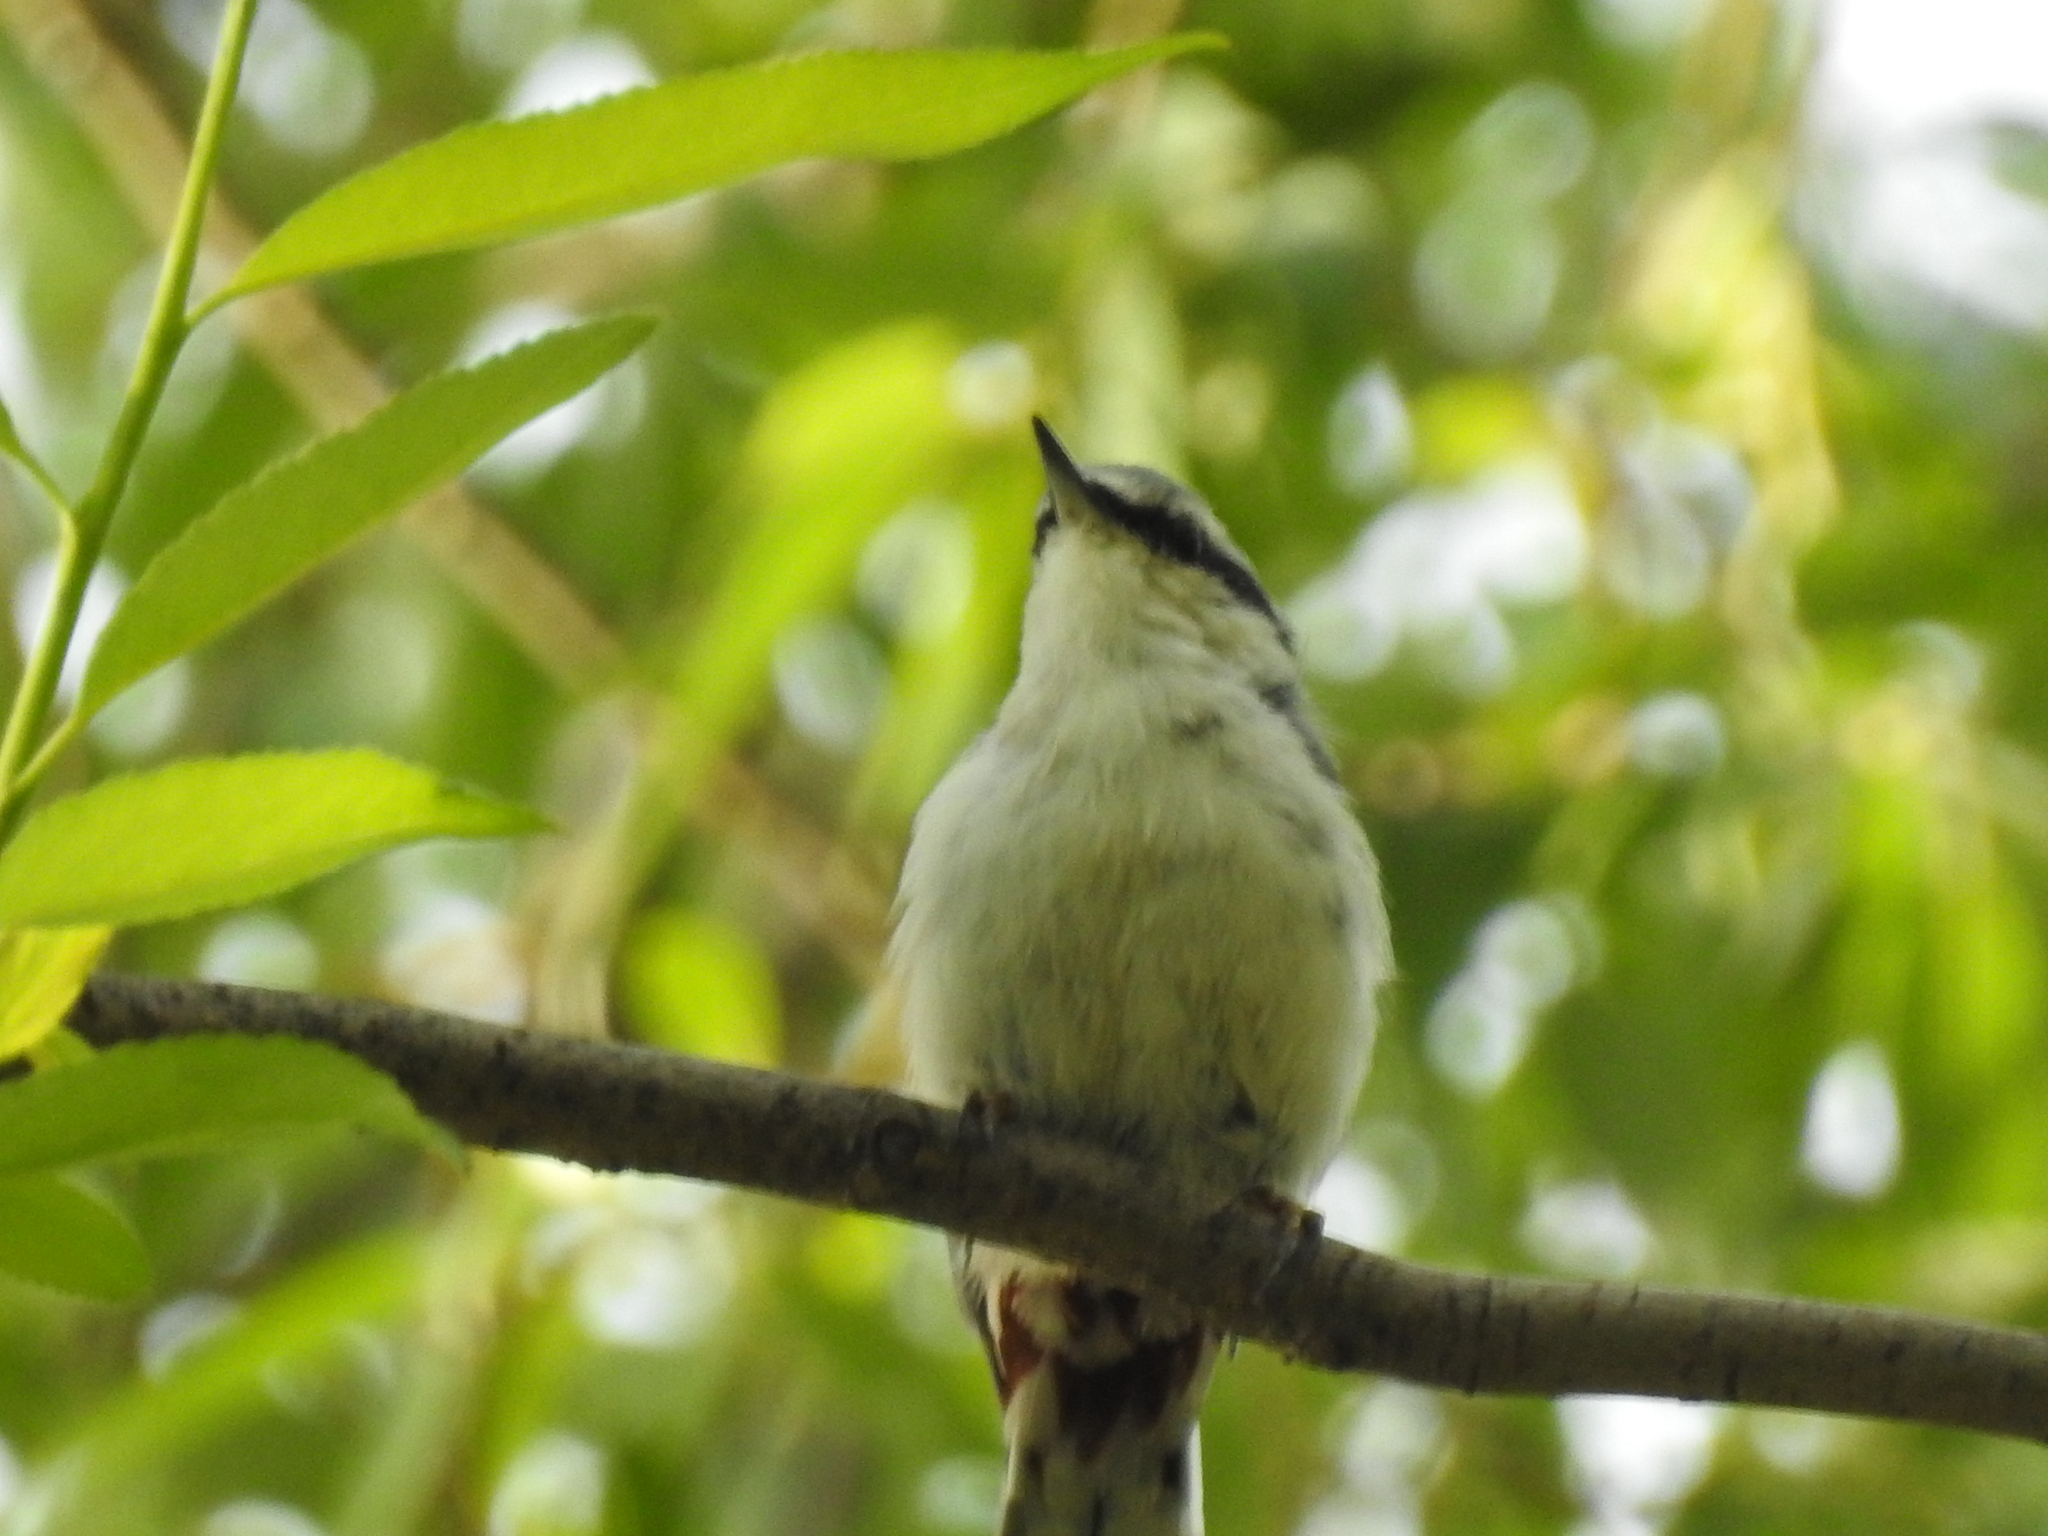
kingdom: Animalia
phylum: Chordata
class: Aves
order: Passeriformes
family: Sittidae
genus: Sitta
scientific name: Sitta europaea
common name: Eurasian nuthatch
